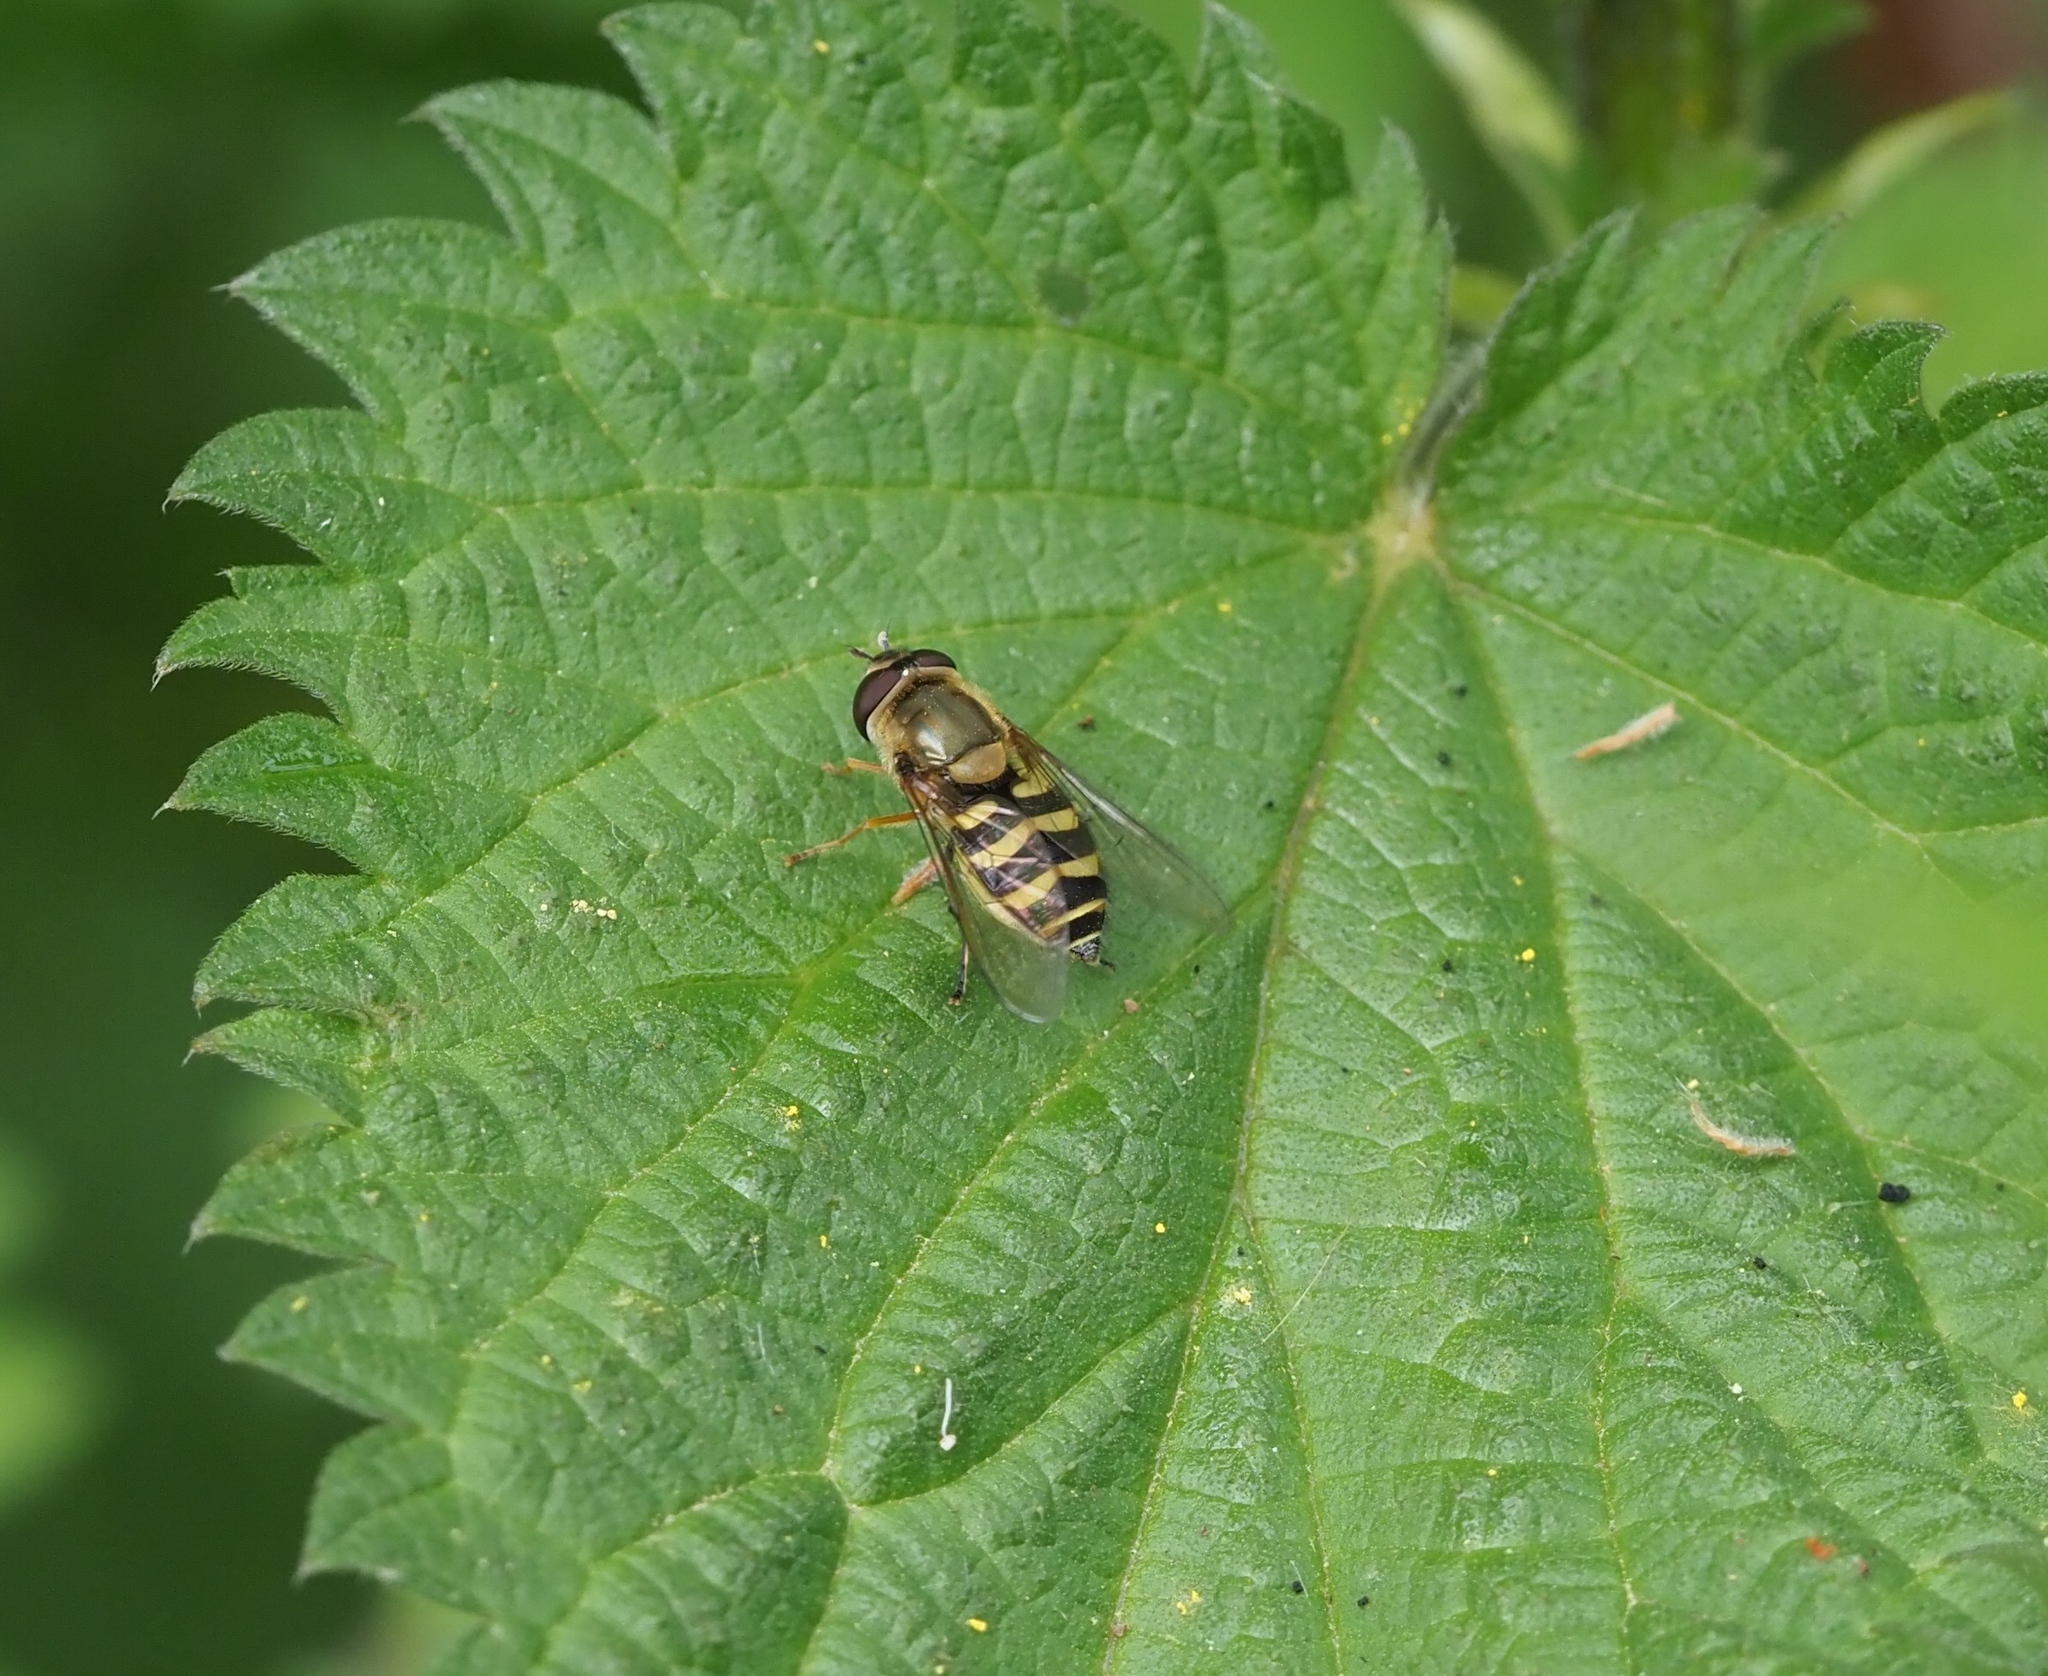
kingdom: Animalia
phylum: Arthropoda
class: Insecta
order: Diptera
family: Syrphidae
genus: Syrphus
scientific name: Syrphus
